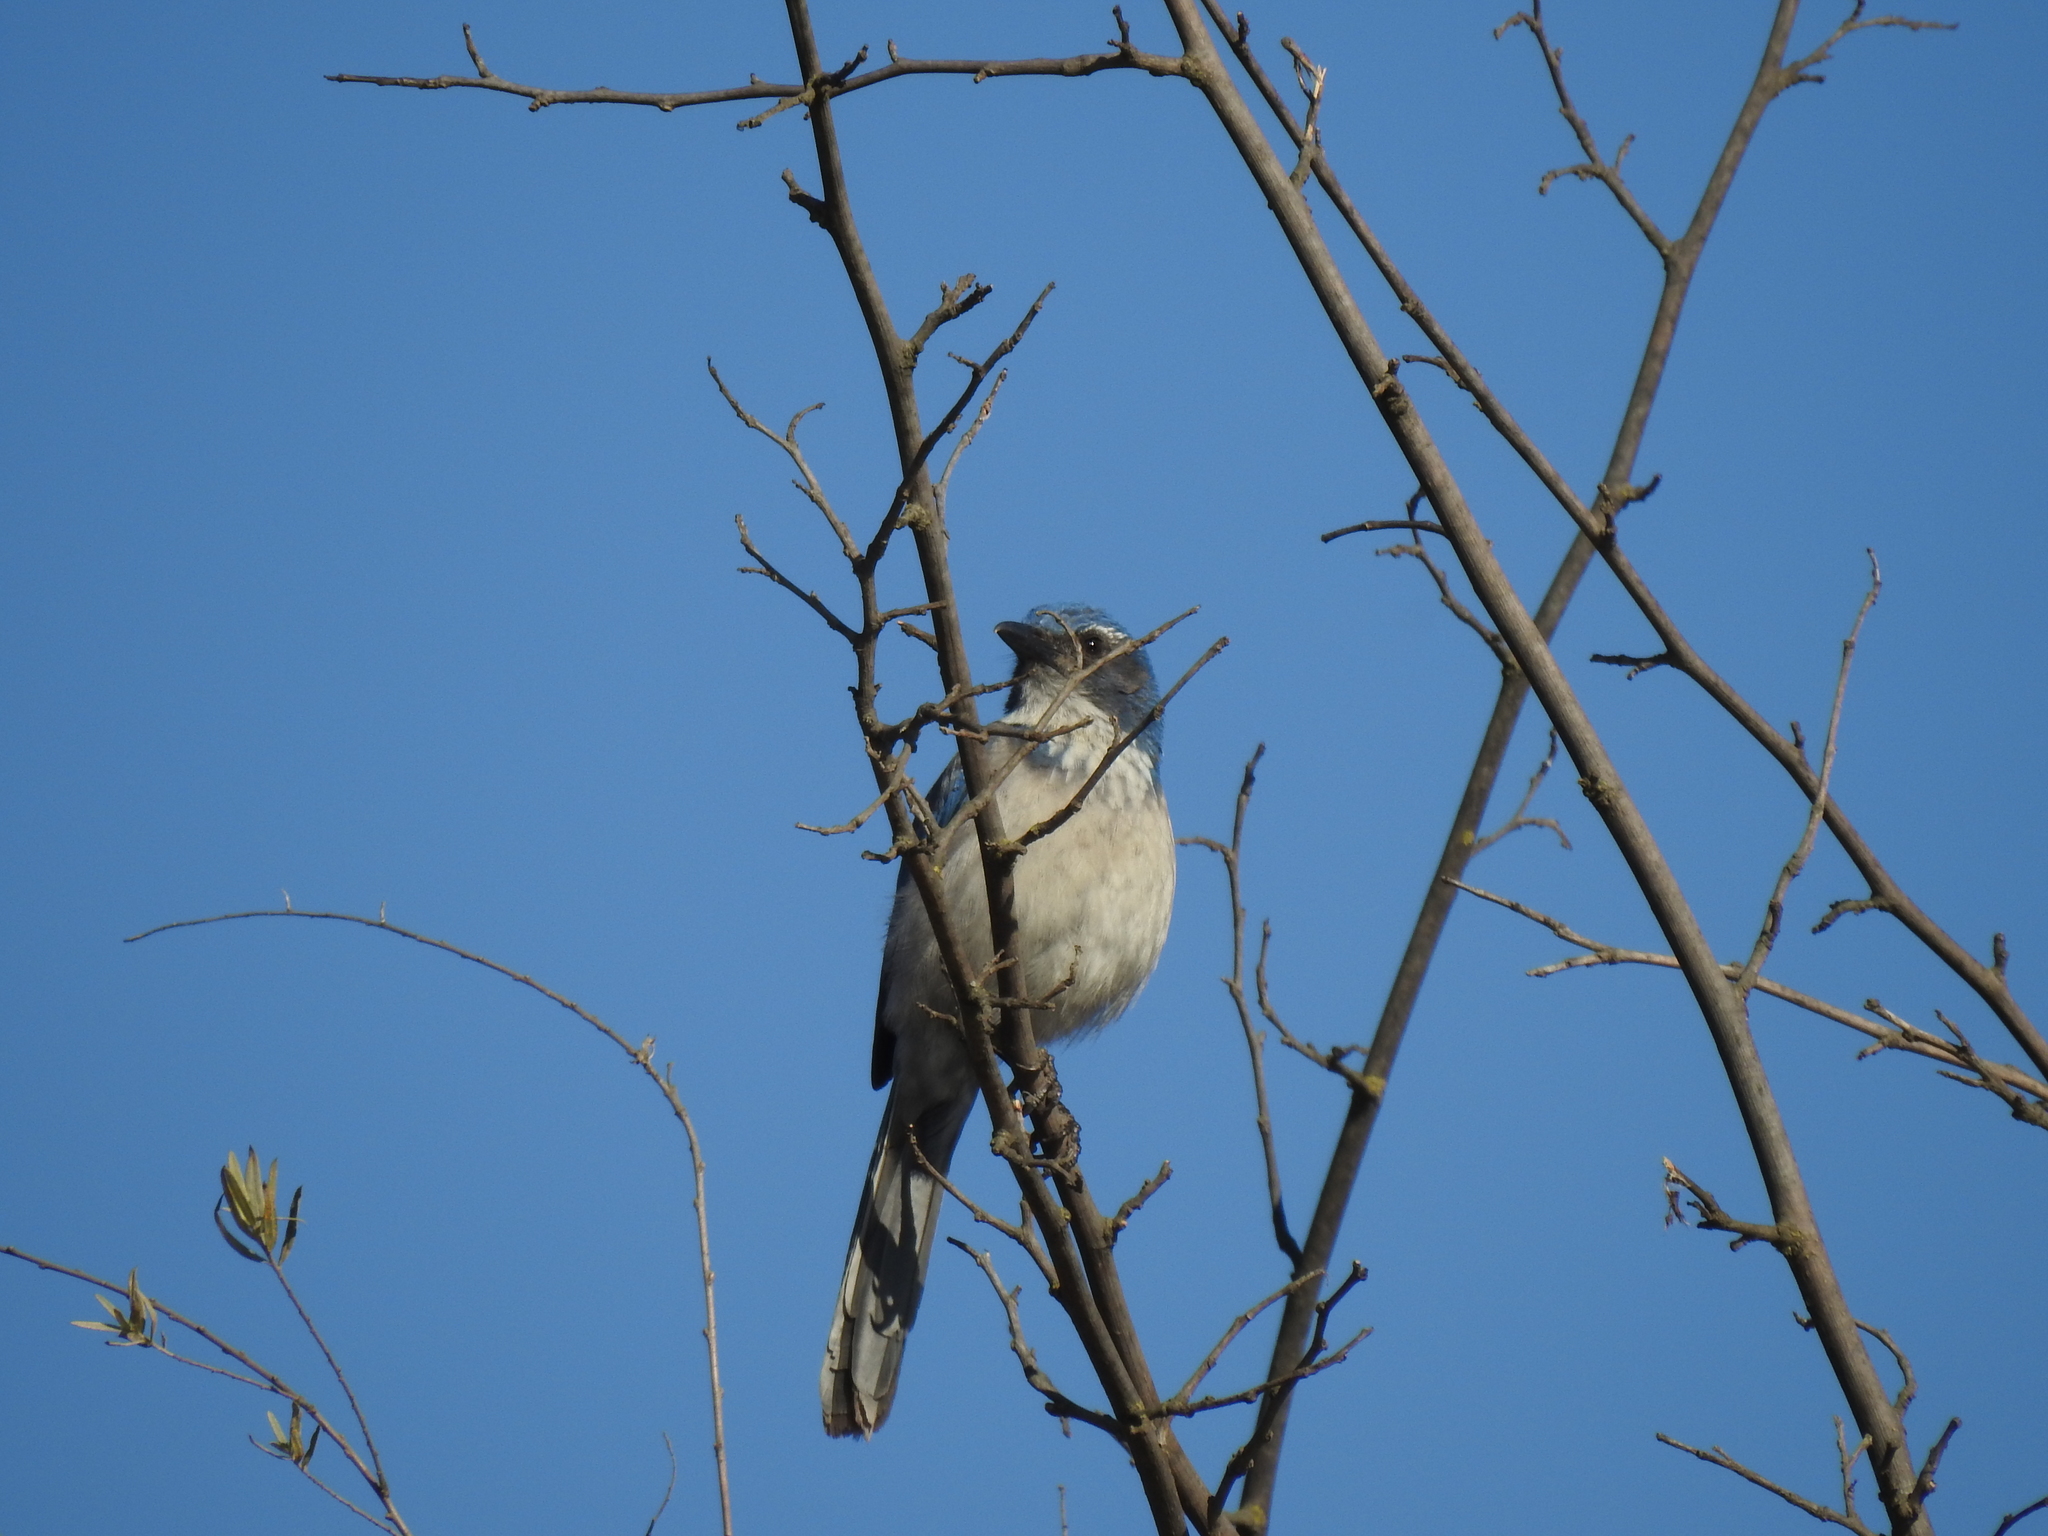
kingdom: Animalia
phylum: Chordata
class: Aves
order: Passeriformes
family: Corvidae
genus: Aphelocoma
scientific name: Aphelocoma californica
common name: California scrub-jay
